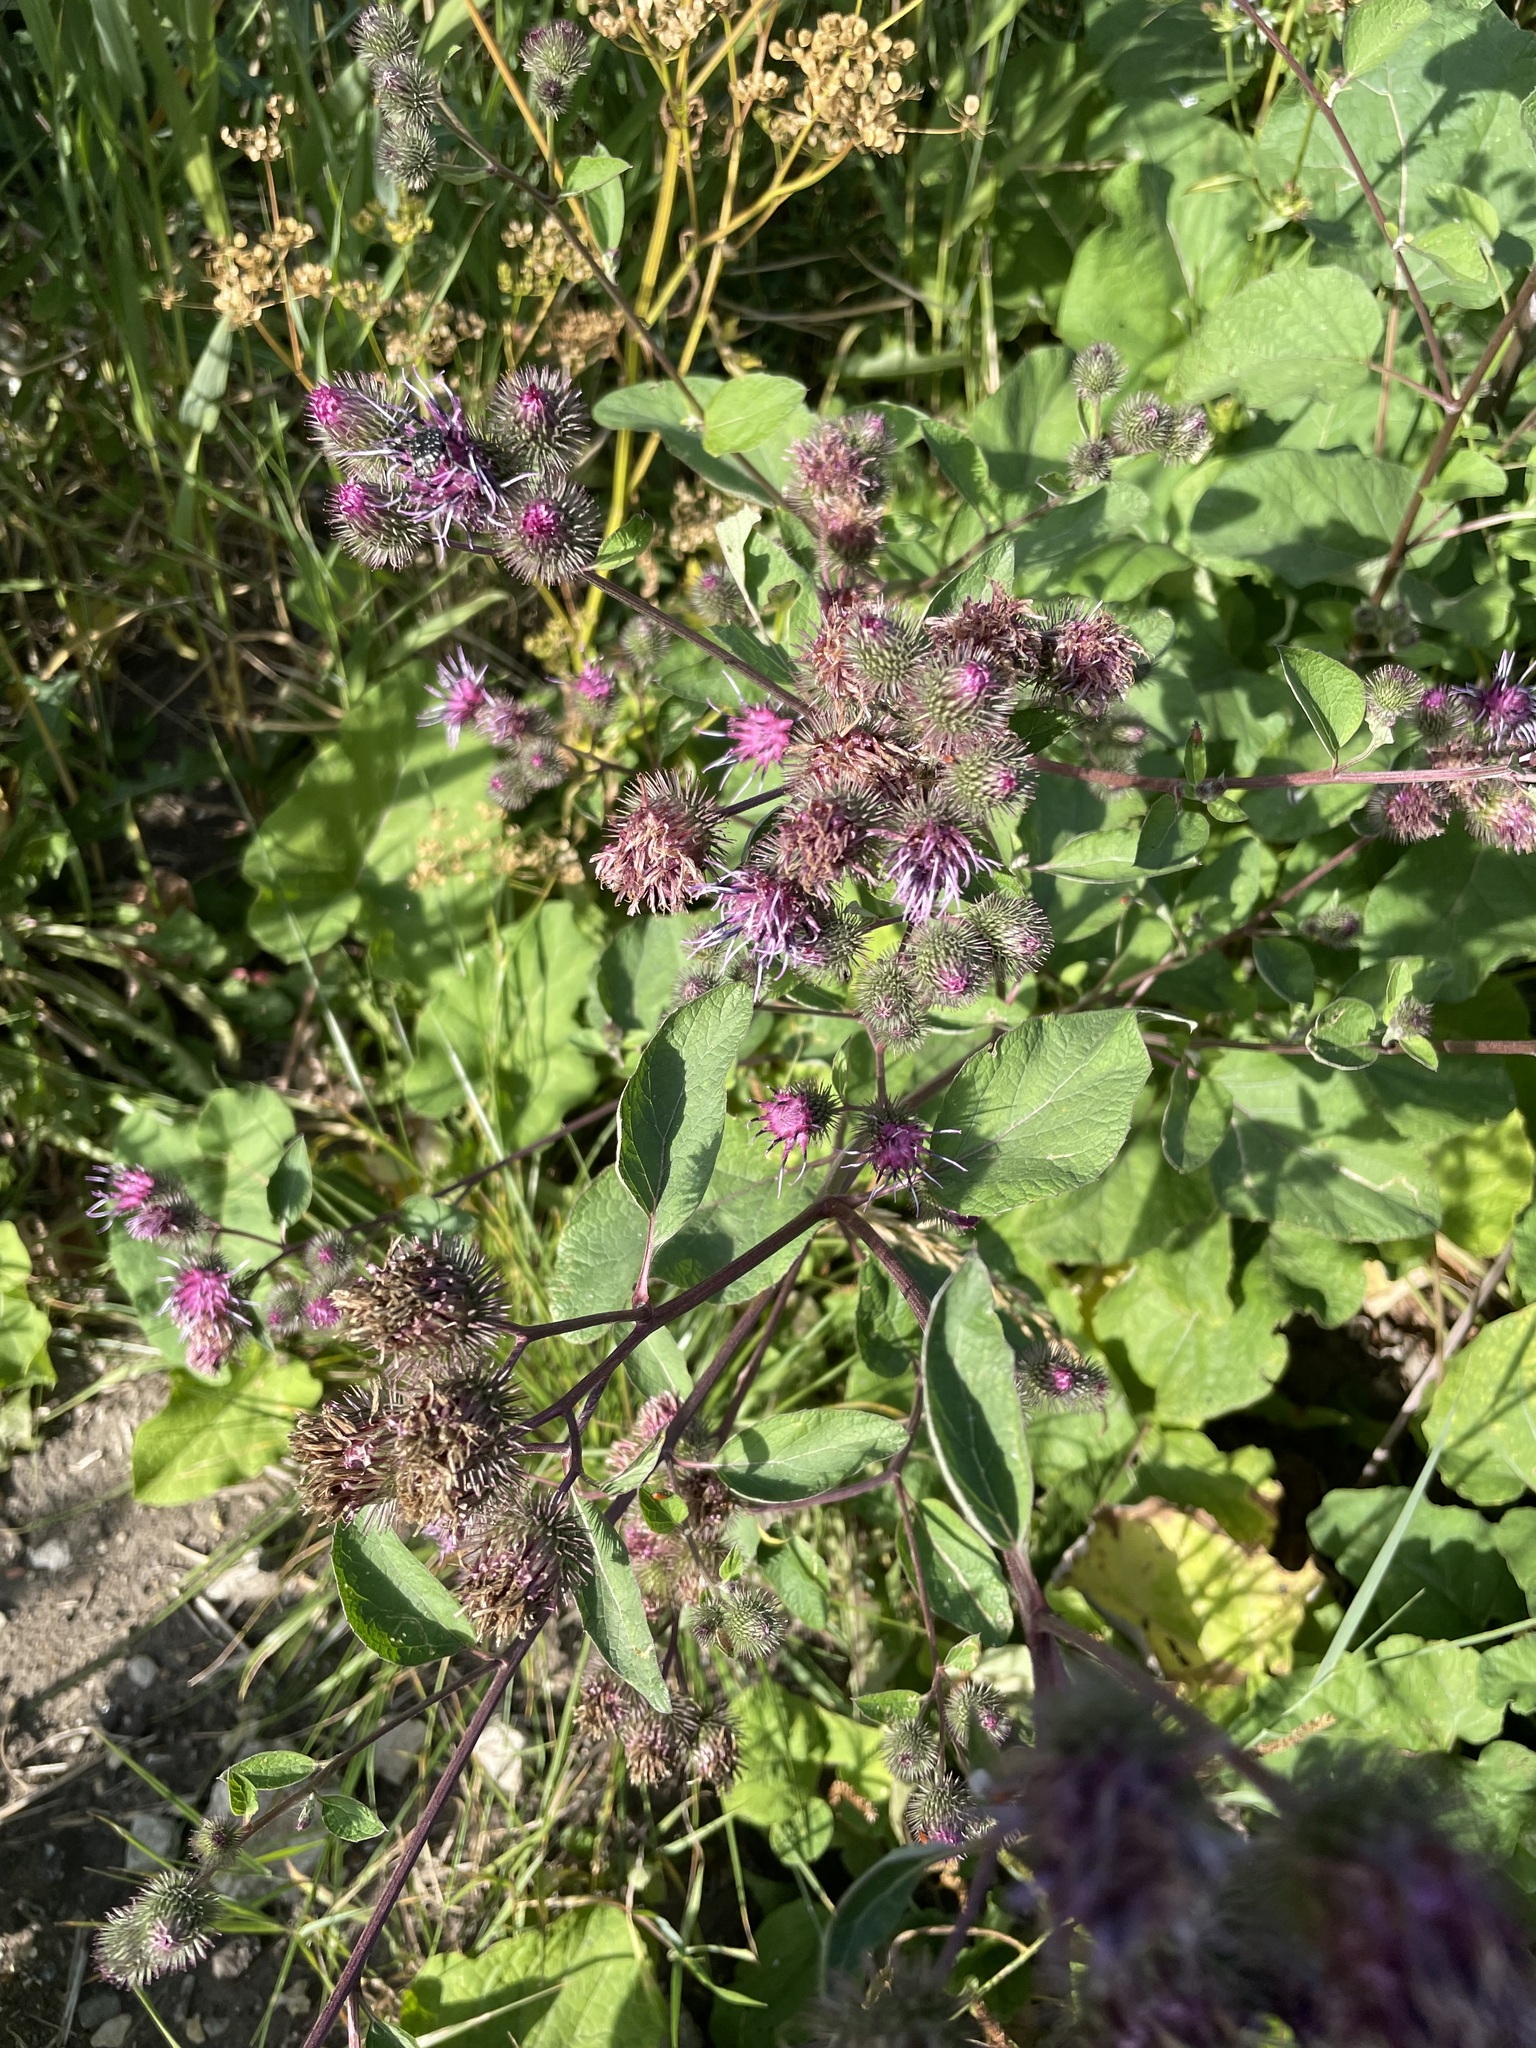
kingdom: Plantae
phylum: Tracheophyta
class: Magnoliopsida
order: Asterales
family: Asteraceae
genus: Arctium
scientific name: Arctium tomentosum
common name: Woolly burdock
